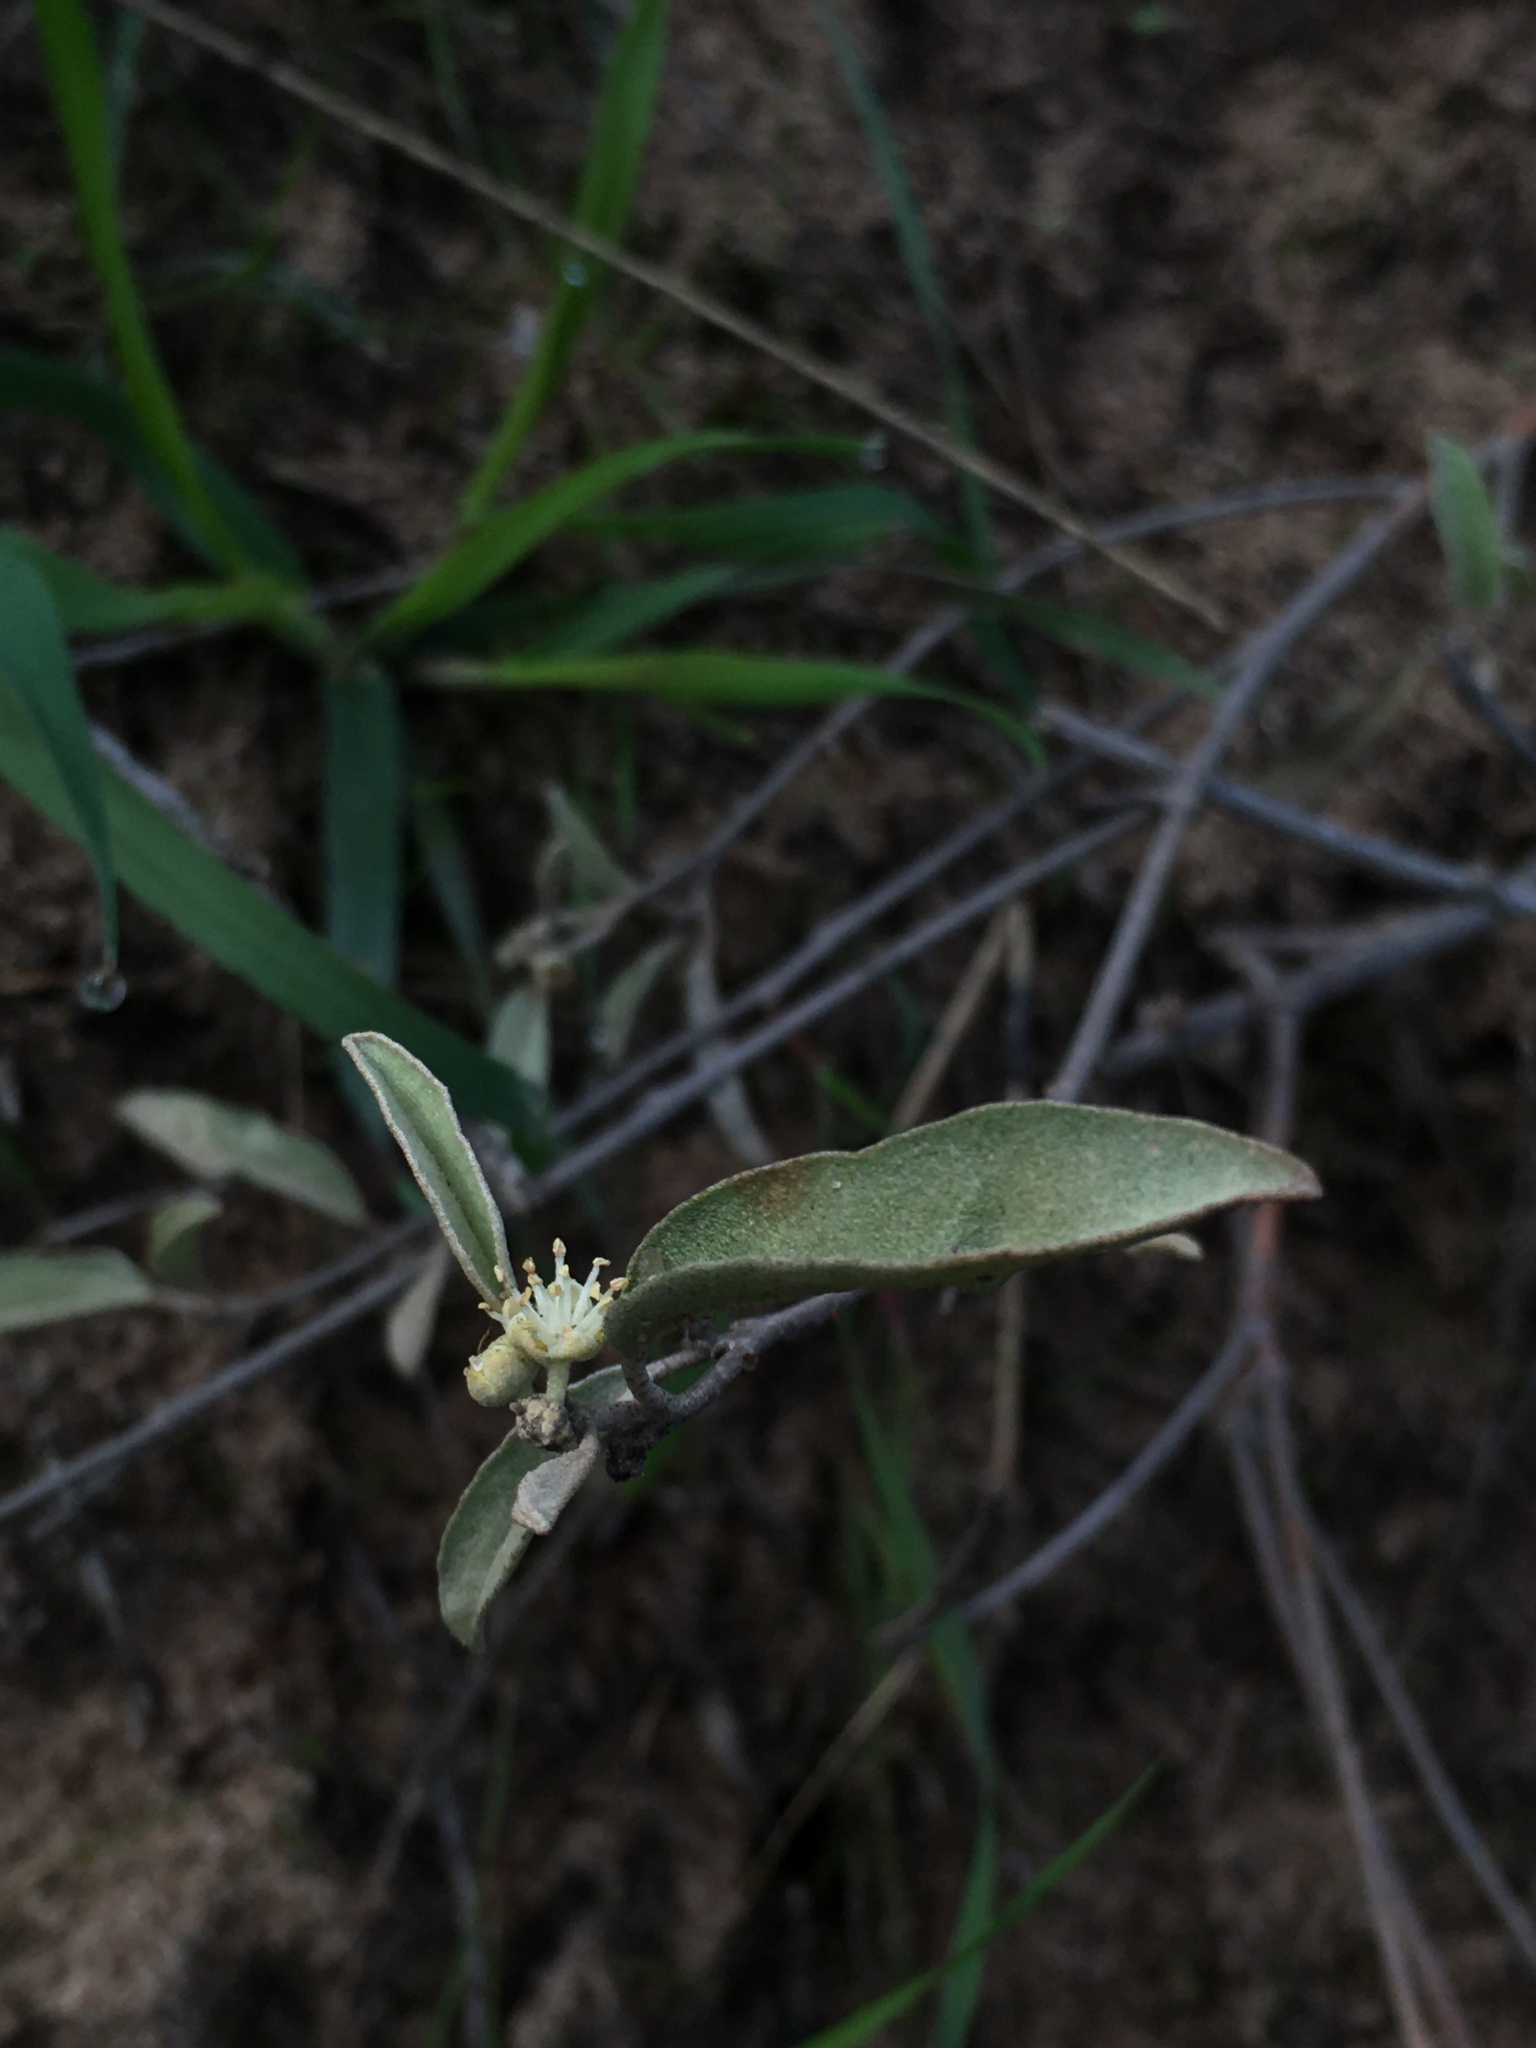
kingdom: Plantae
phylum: Tracheophyta
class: Magnoliopsida
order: Malpighiales
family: Euphorbiaceae
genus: Croton
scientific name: Croton californicus
